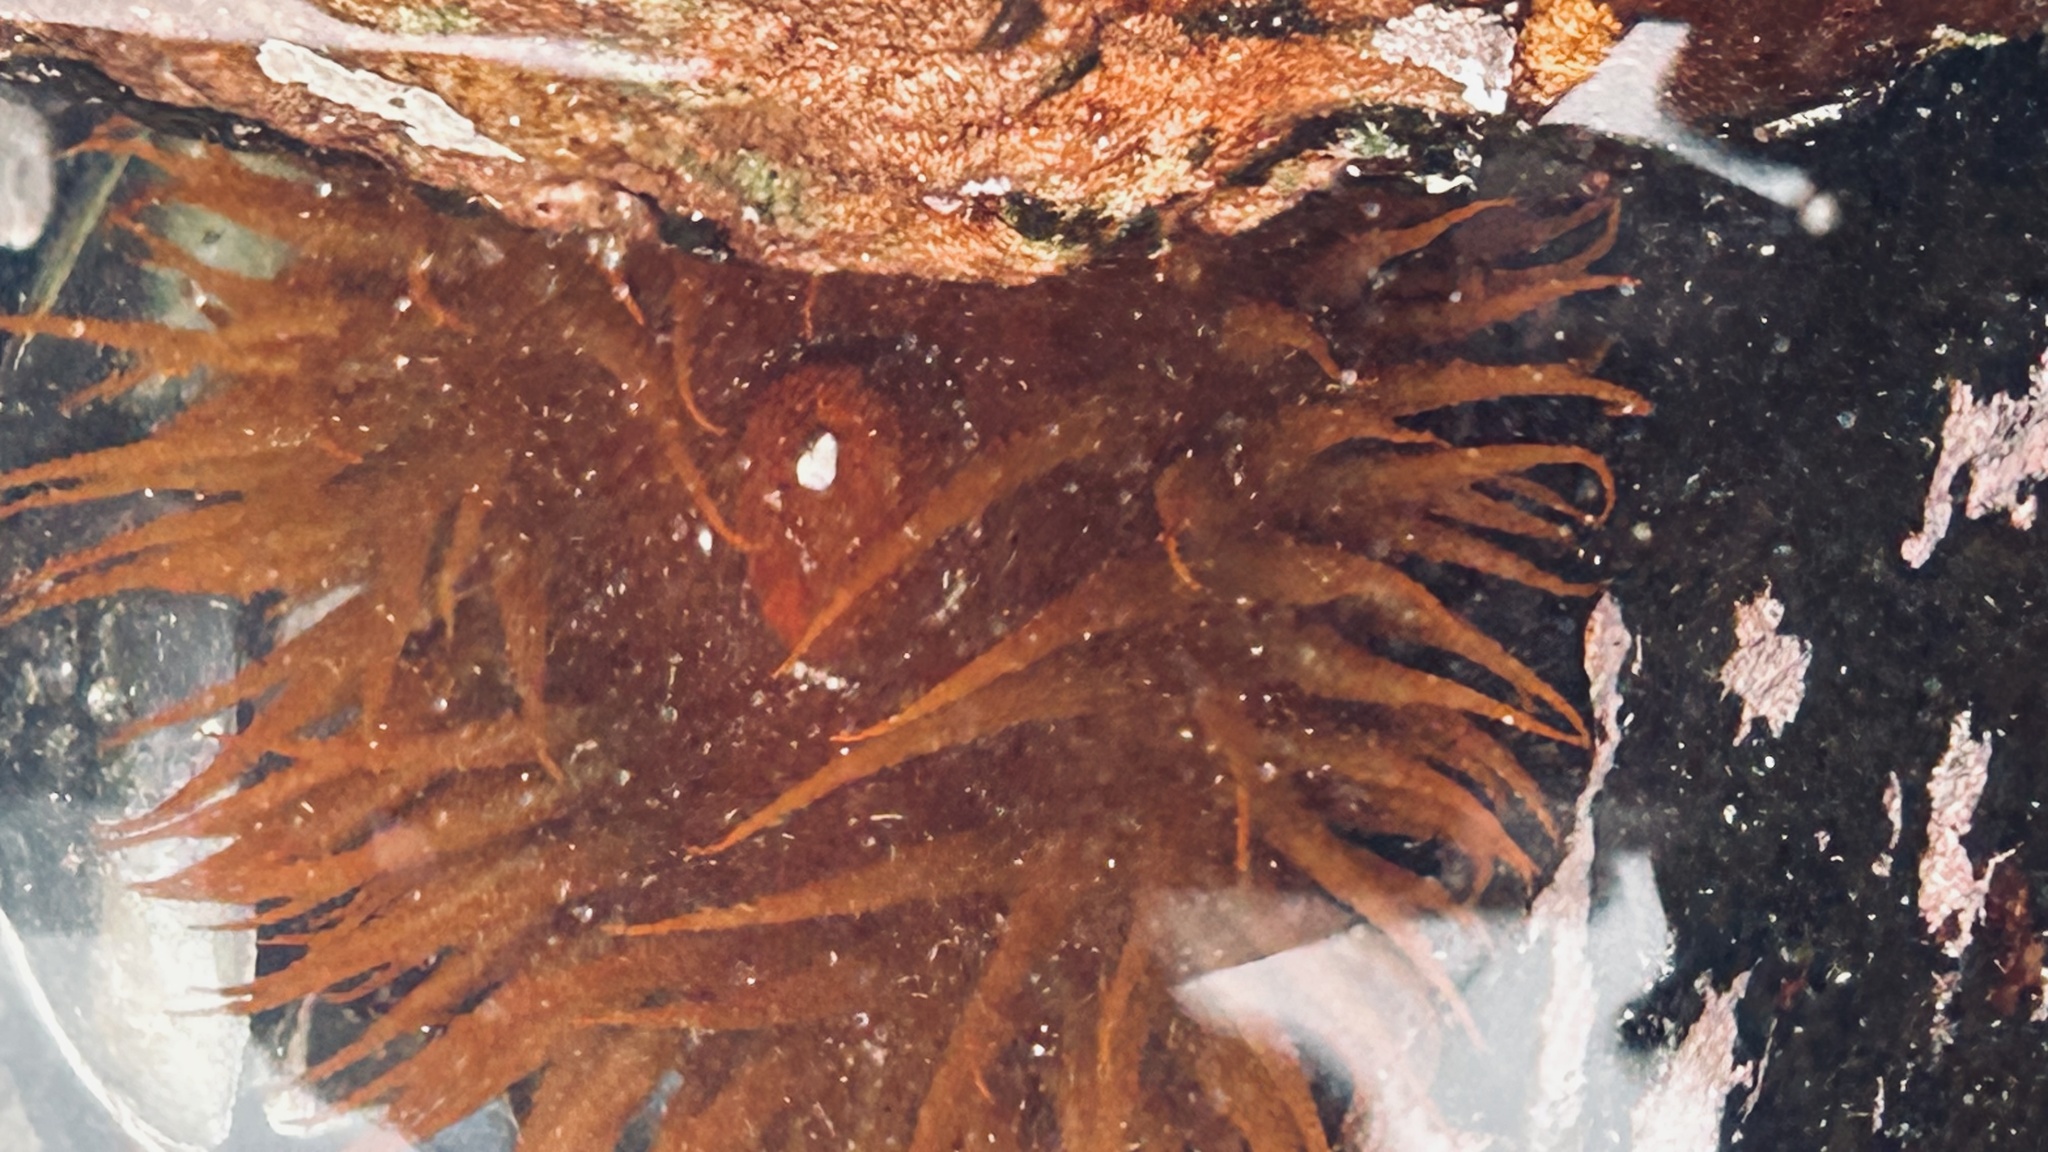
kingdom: Animalia
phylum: Cnidaria
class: Anthozoa
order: Actiniaria
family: Actiniidae
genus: Pseudactinia
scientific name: Pseudactinia flagellifera
